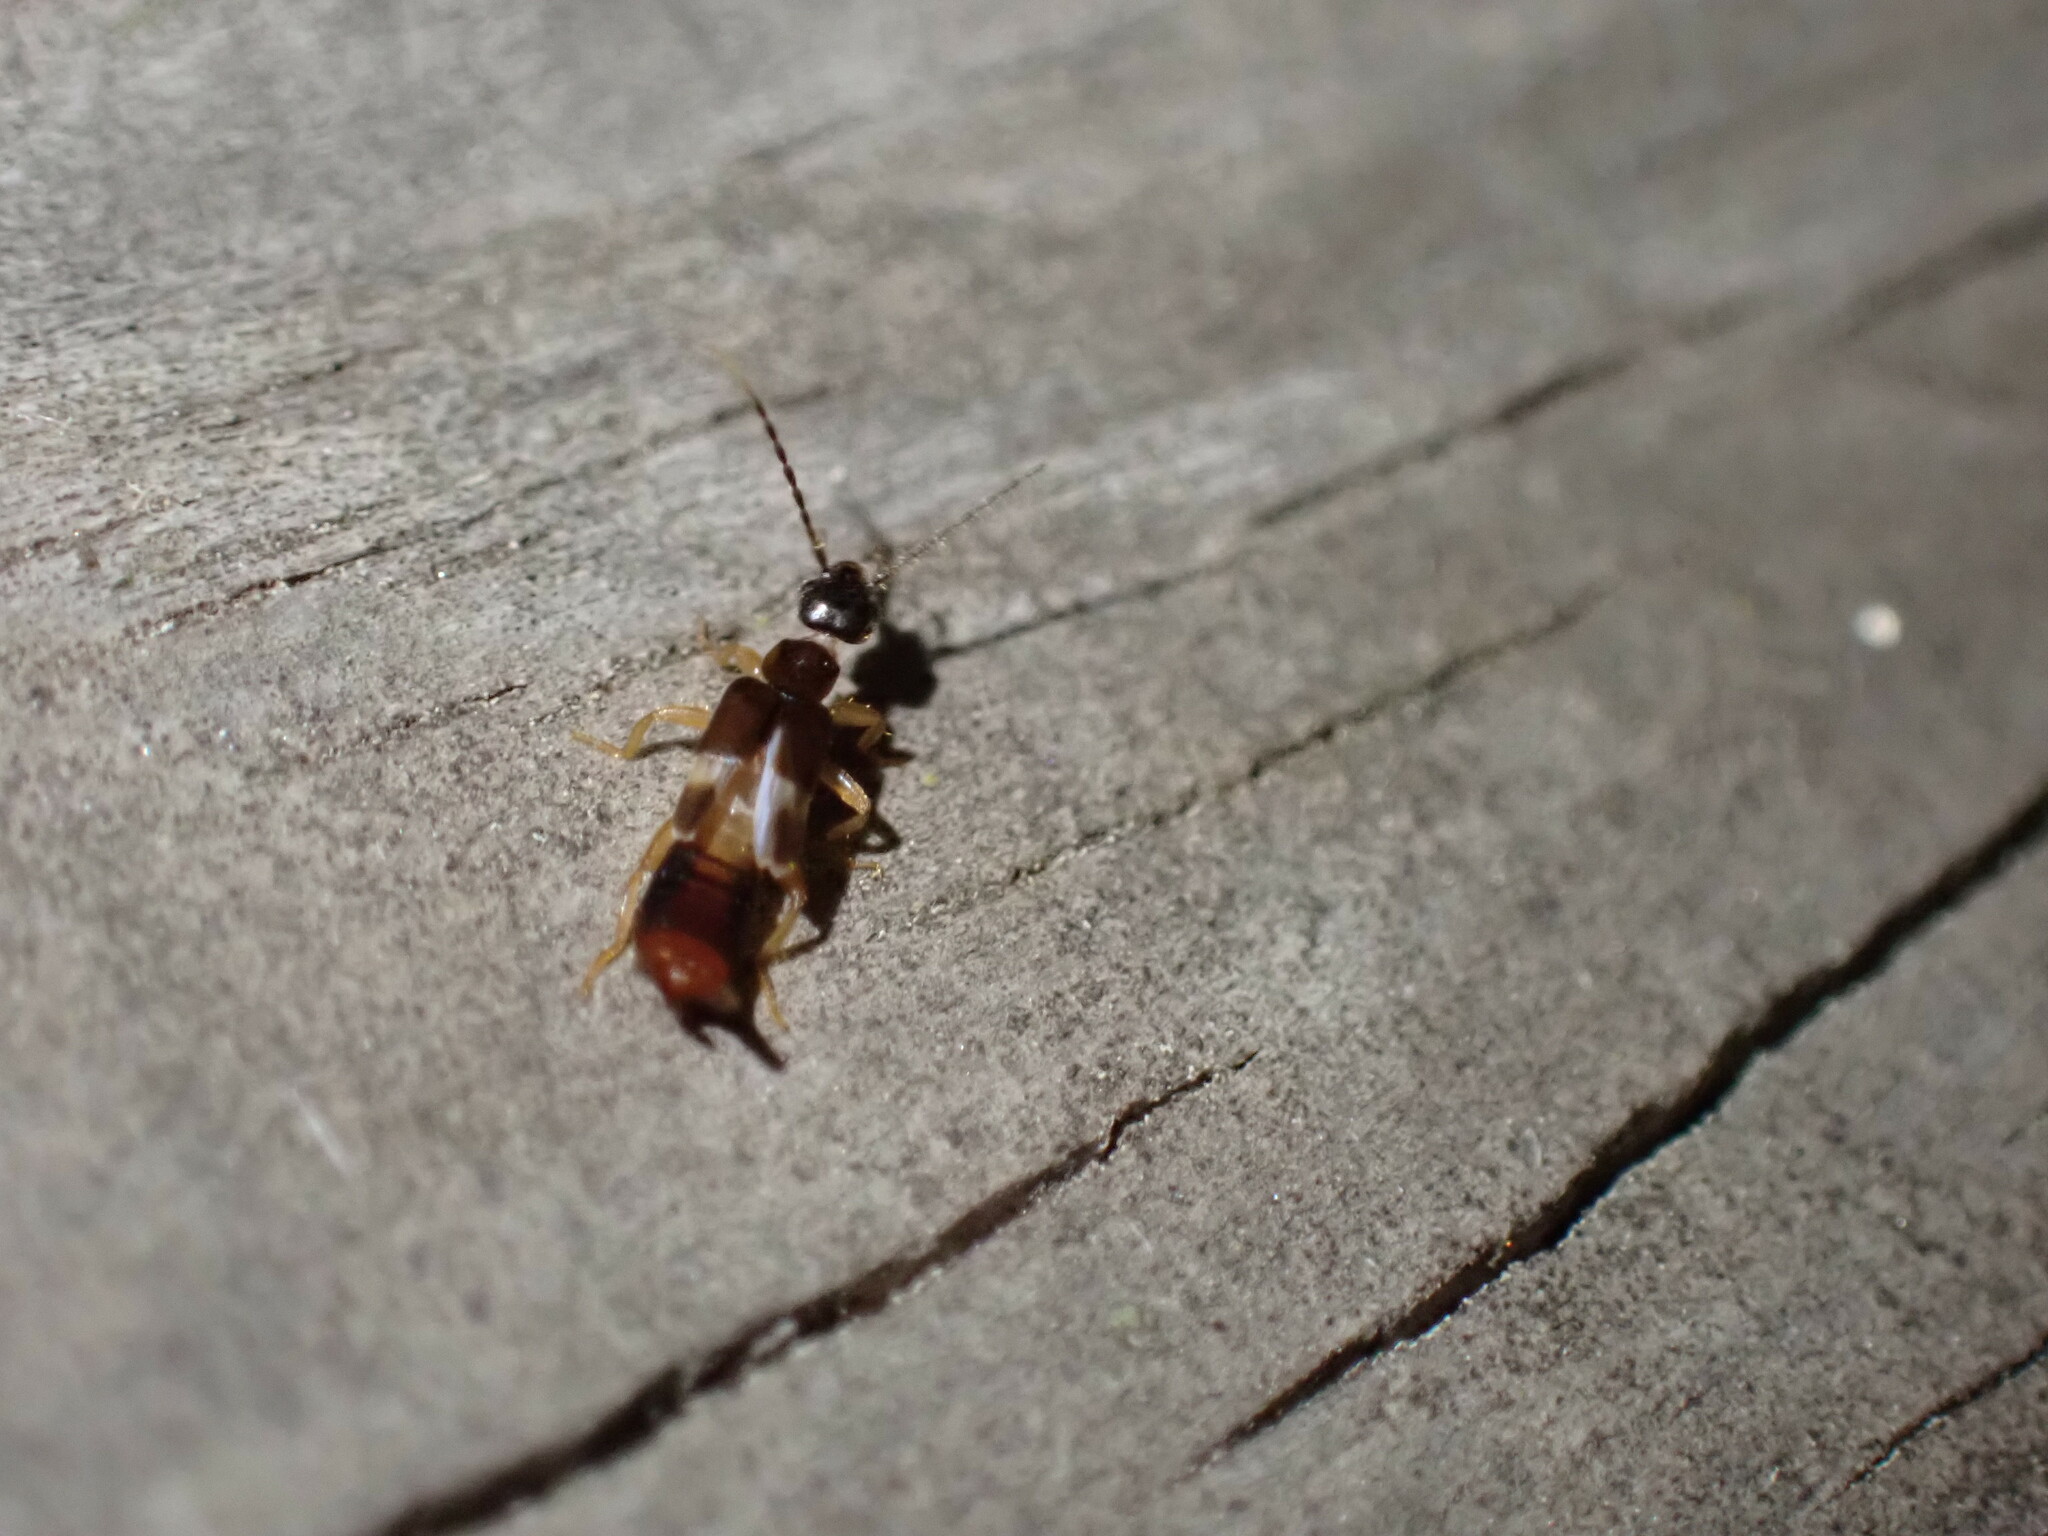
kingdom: Animalia
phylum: Arthropoda
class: Insecta
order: Dermaptera
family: Spongiphoridae
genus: Labia
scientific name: Labia minor
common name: Lesser earwig
